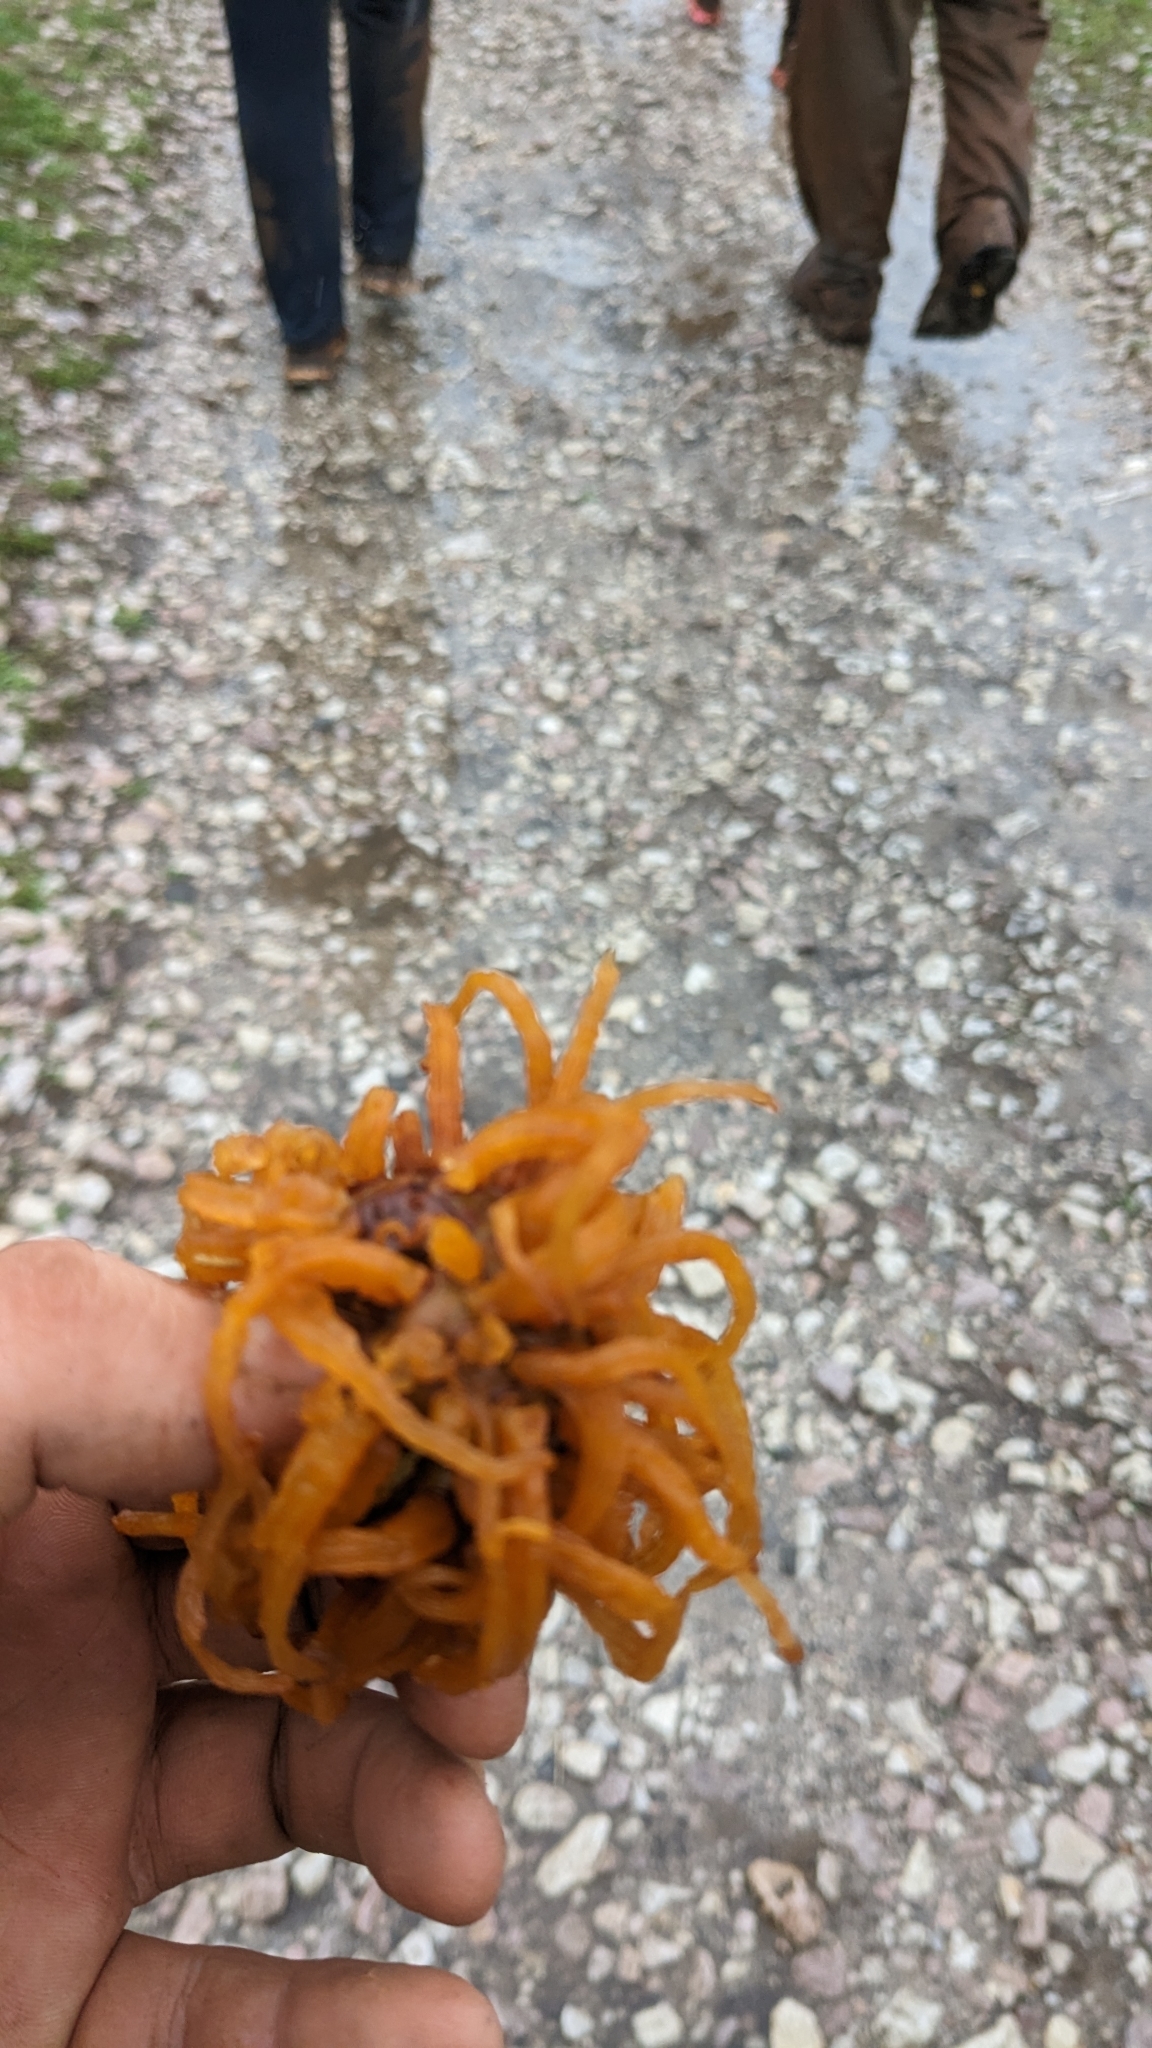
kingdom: Fungi
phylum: Basidiomycota
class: Pucciniomycetes
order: Pucciniales
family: Gymnosporangiaceae
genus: Gymnosporangium
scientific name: Gymnosporangium juniperi-virginianae
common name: Juniper-apple rust
